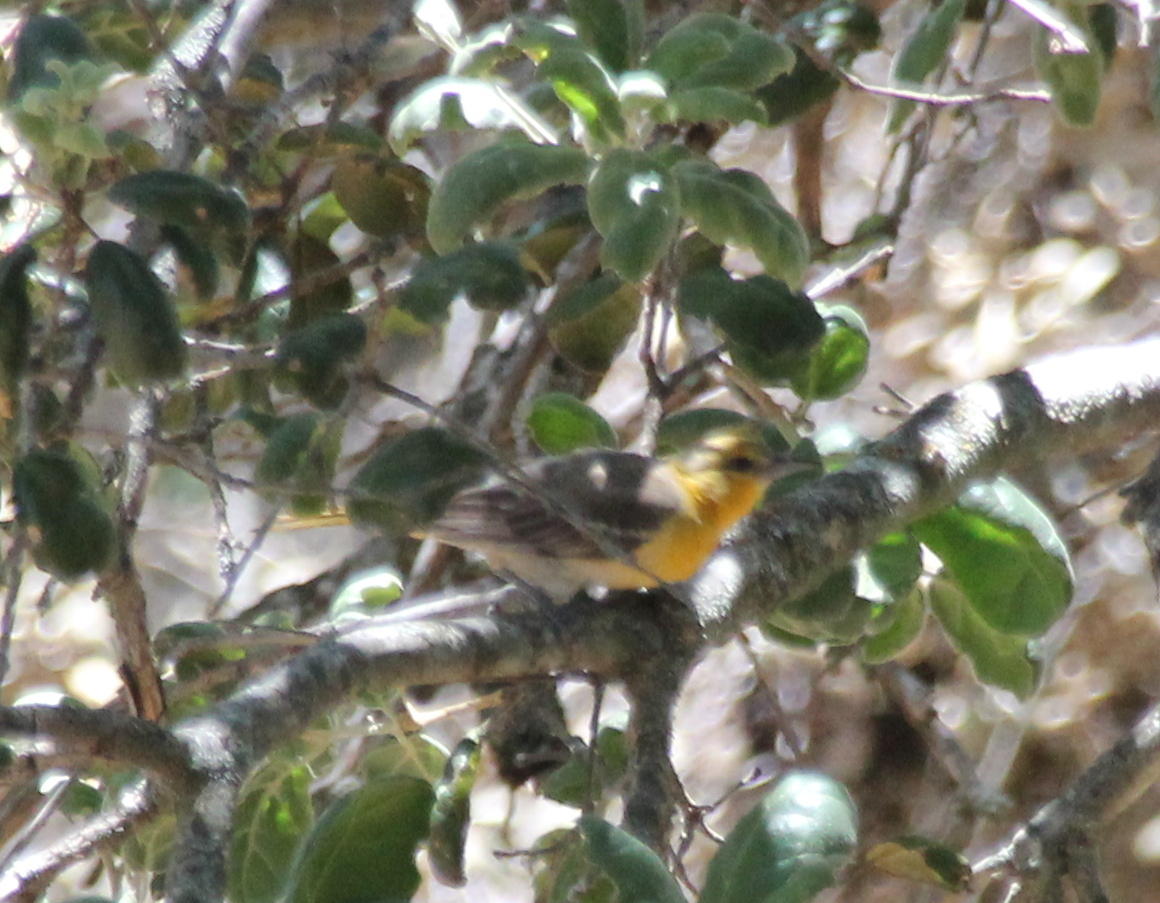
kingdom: Animalia
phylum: Chordata
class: Aves
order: Passeriformes
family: Icteridae
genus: Icterus
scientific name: Icterus bullockii
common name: Bullock's oriole
